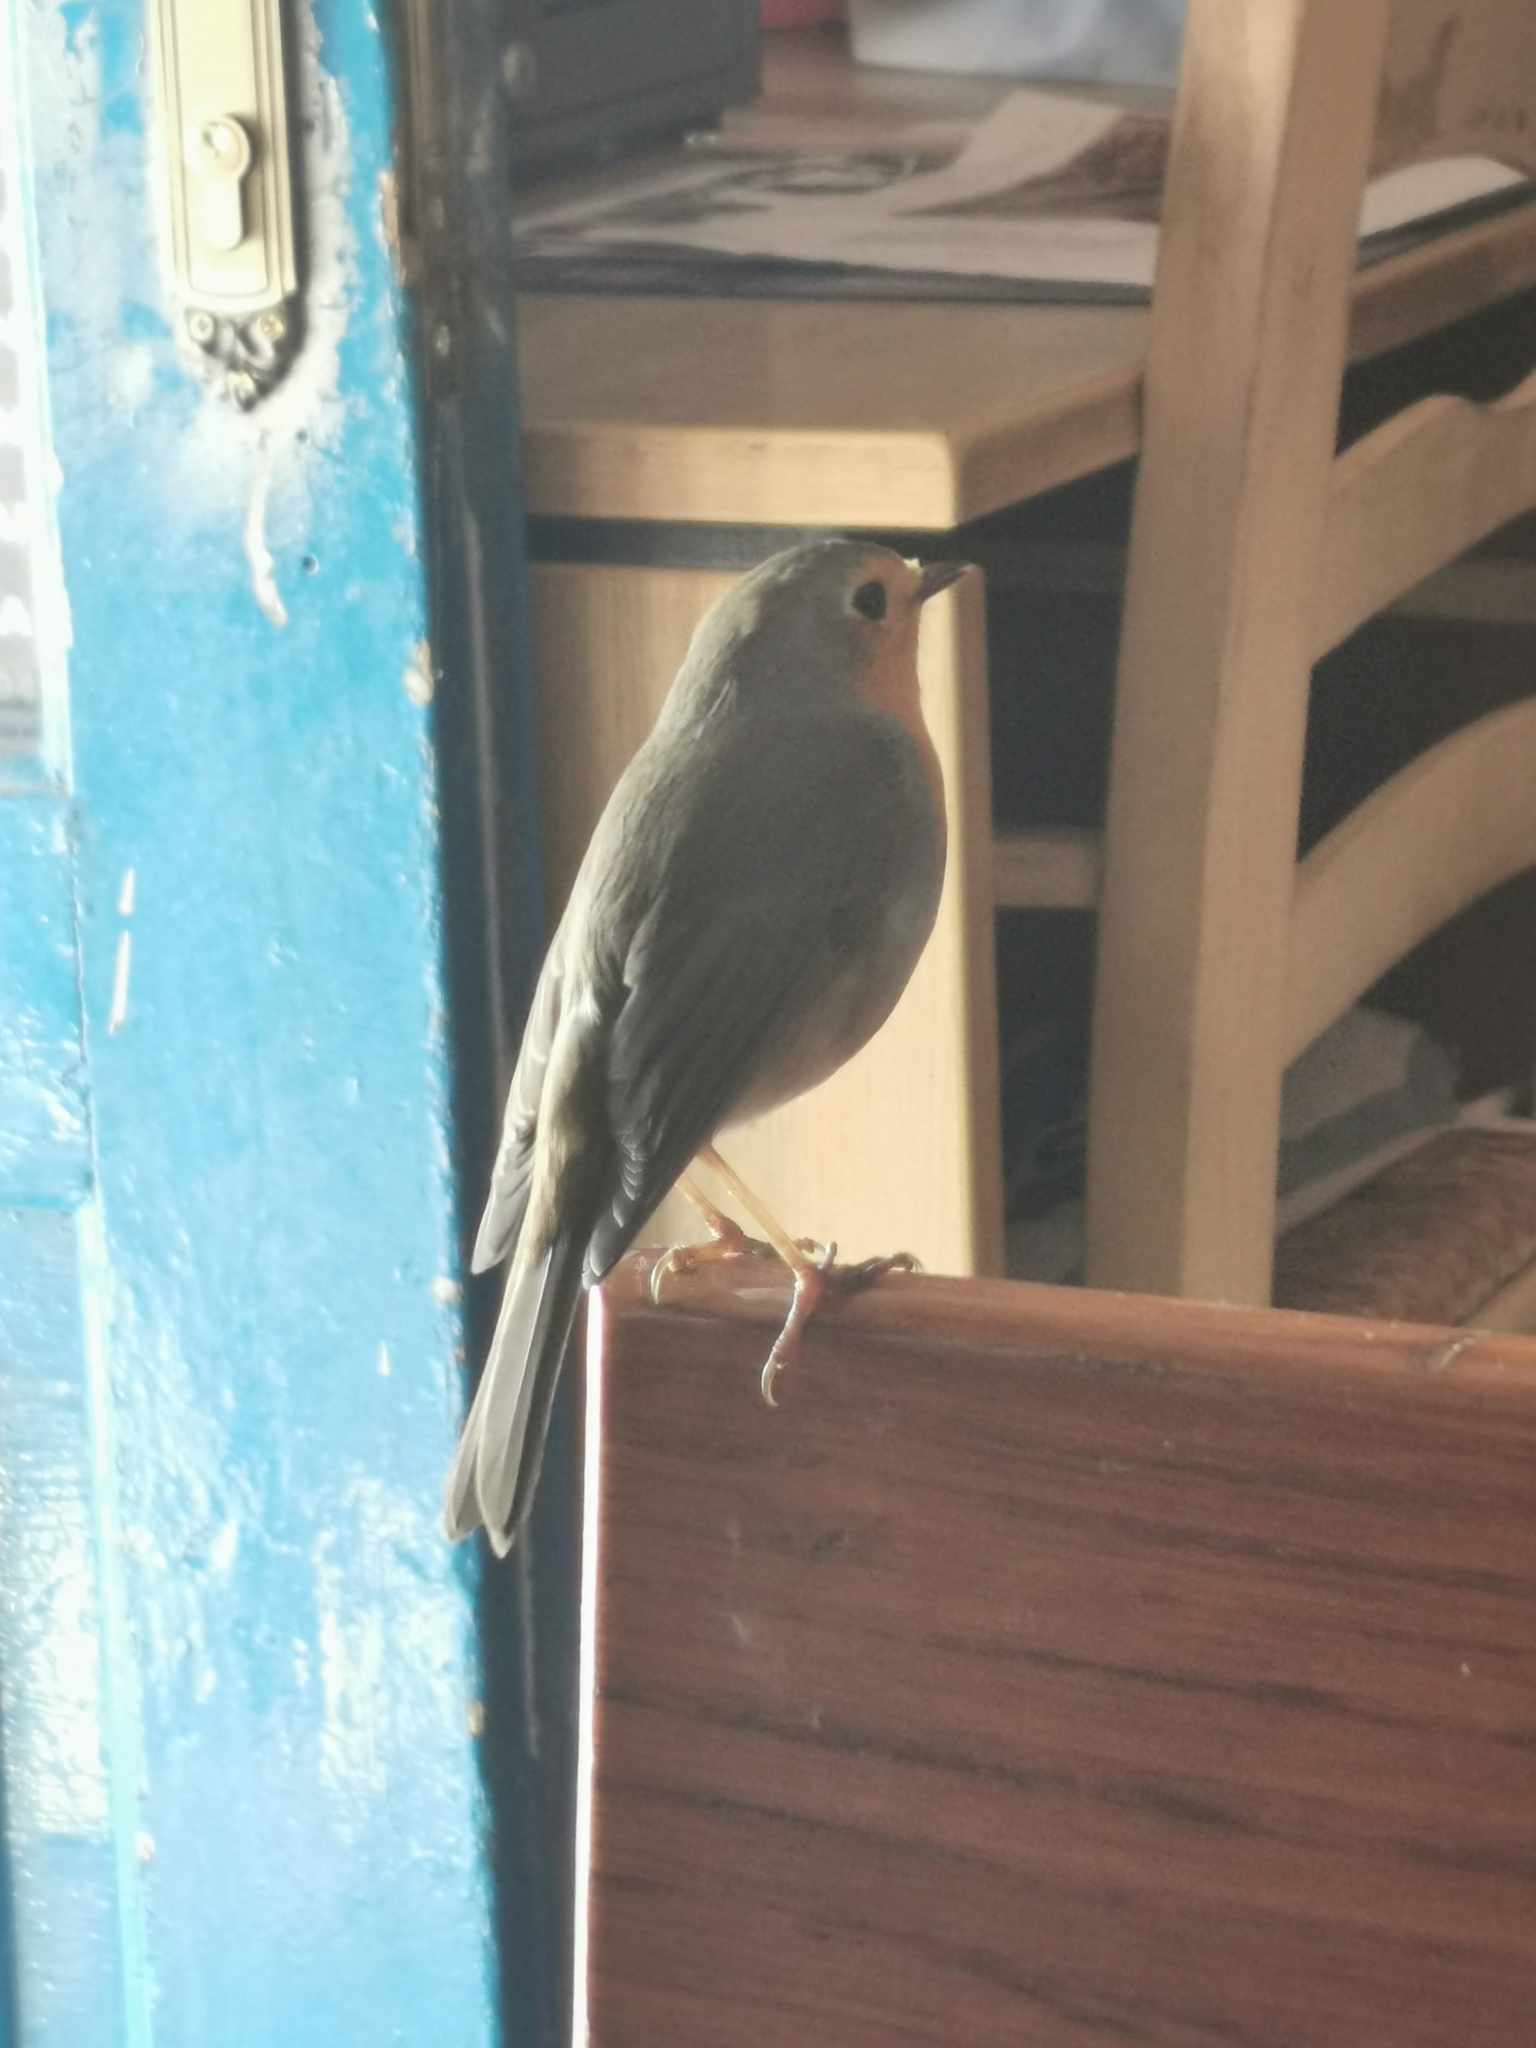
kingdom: Animalia
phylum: Chordata
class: Aves
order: Passeriformes
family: Muscicapidae
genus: Erithacus
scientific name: Erithacus rubecula
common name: European robin
